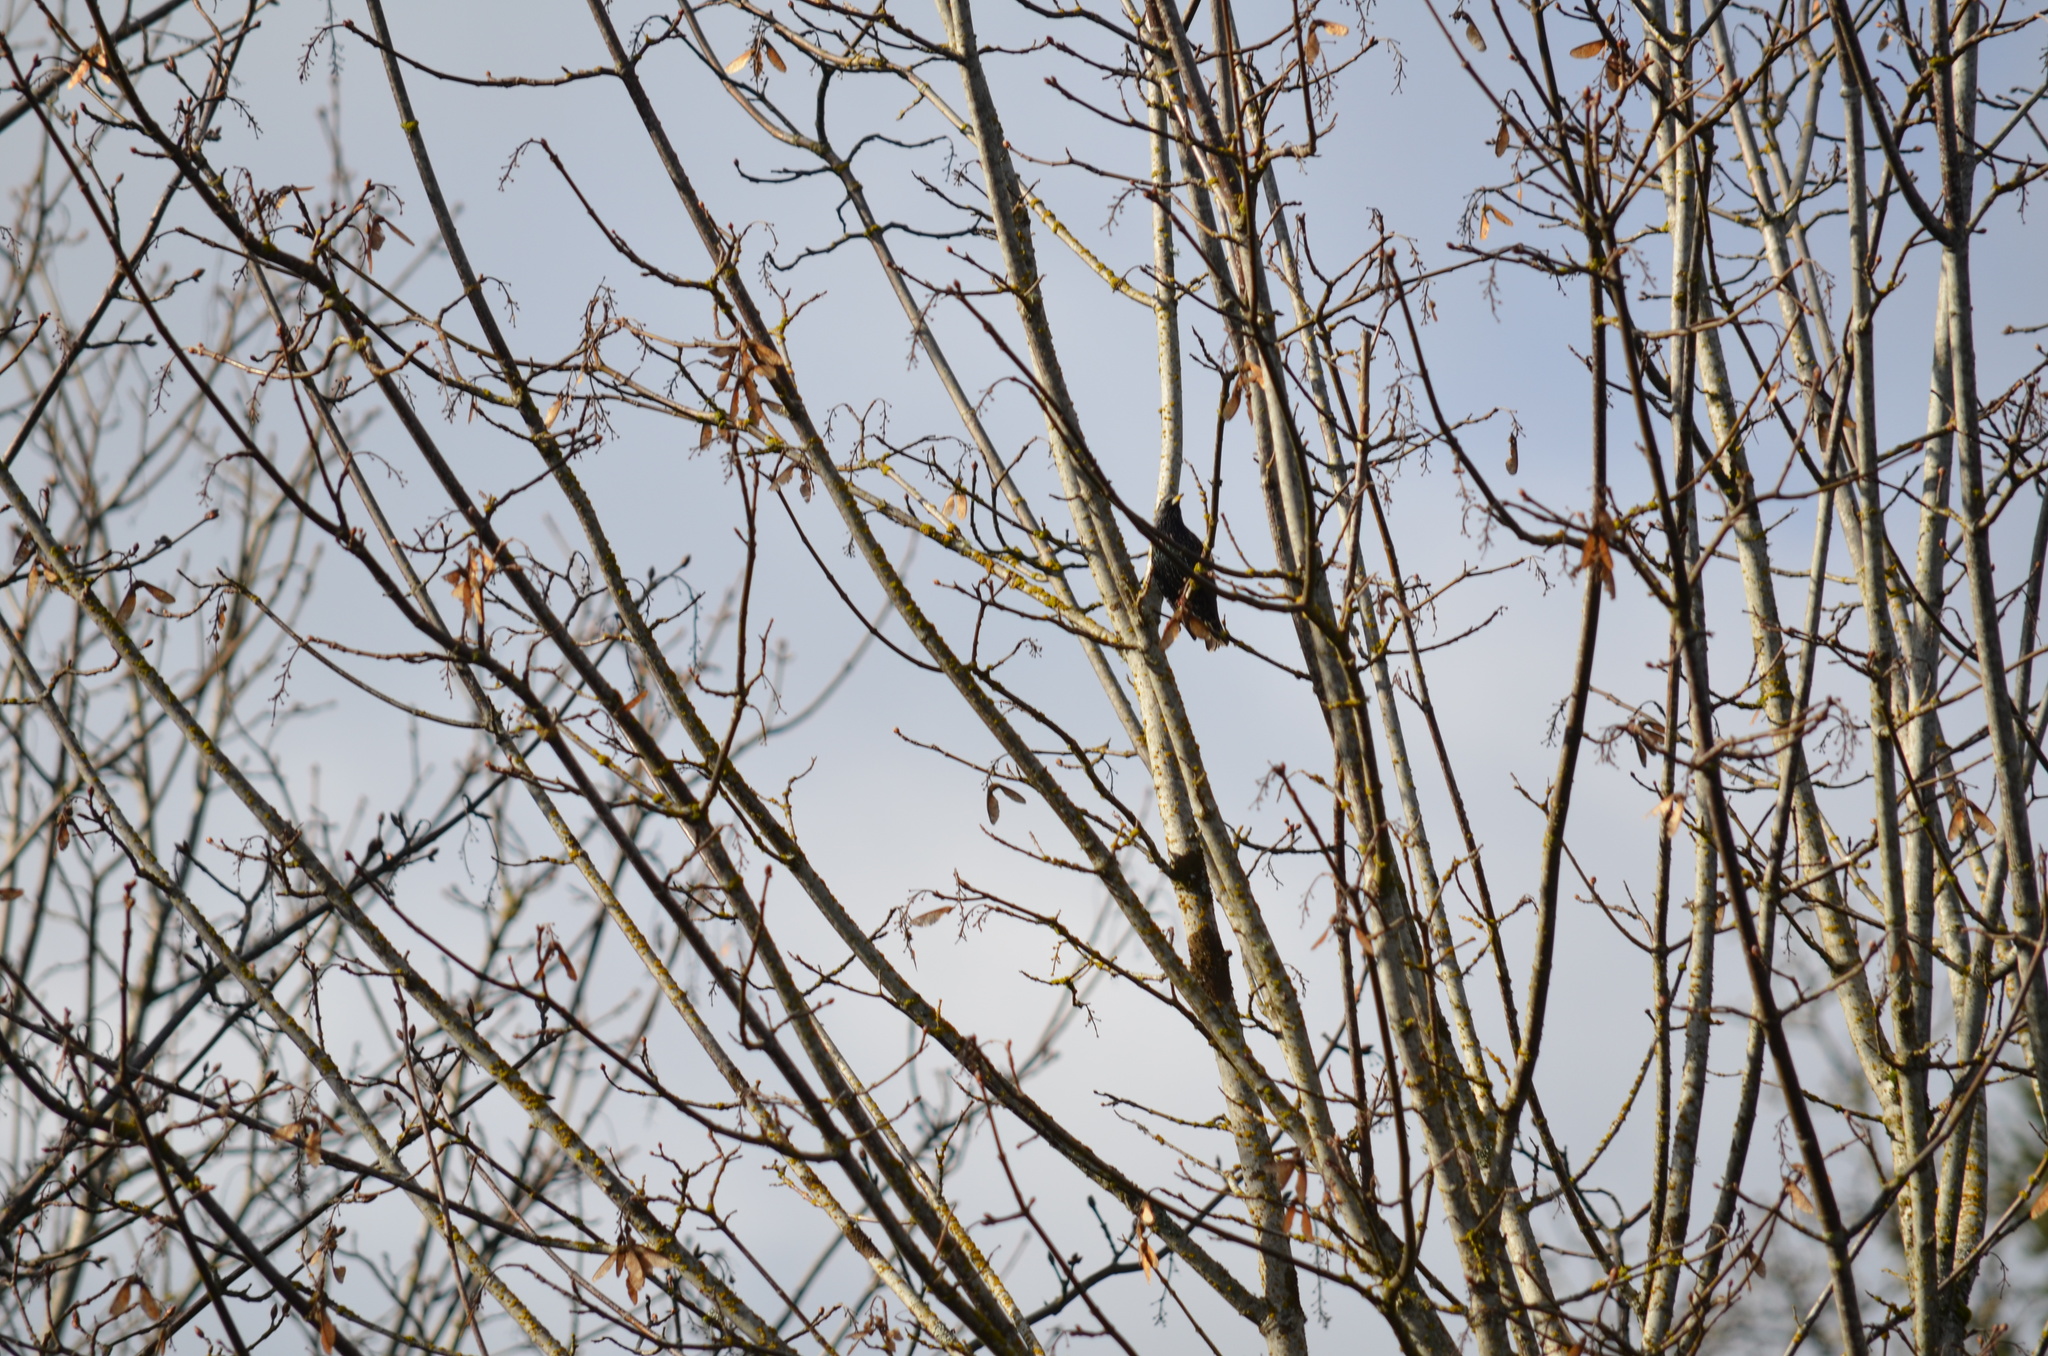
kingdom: Animalia
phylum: Chordata
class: Aves
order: Passeriformes
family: Sturnidae
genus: Sturnus
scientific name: Sturnus vulgaris
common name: Common starling
